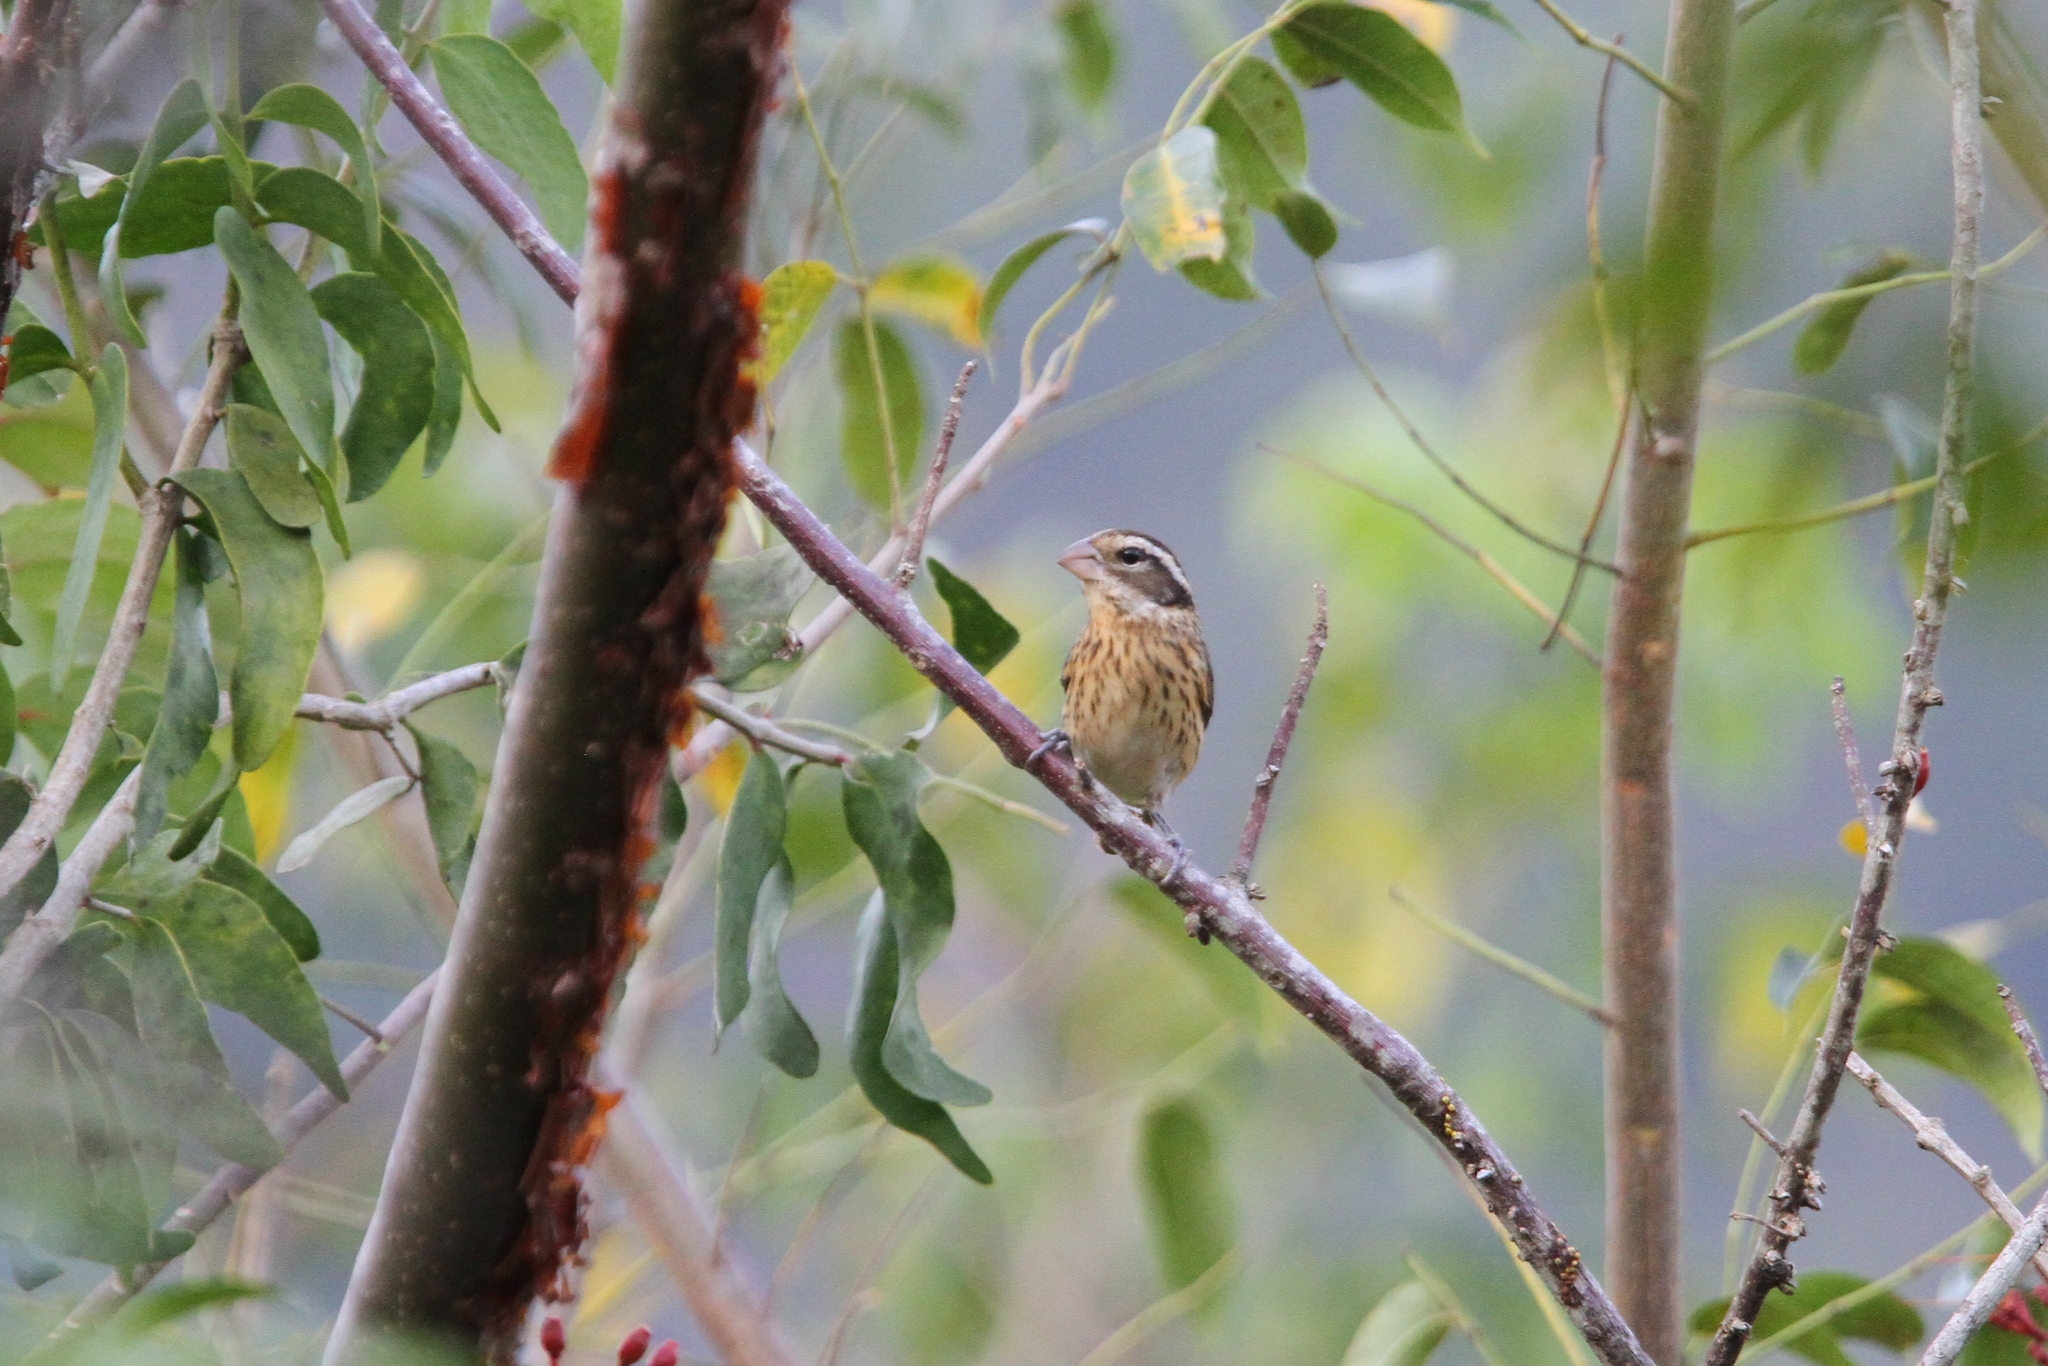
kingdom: Animalia
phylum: Chordata
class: Aves
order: Passeriformes
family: Cardinalidae
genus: Pheucticus
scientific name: Pheucticus ludovicianus
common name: Rose-breasted grosbeak
